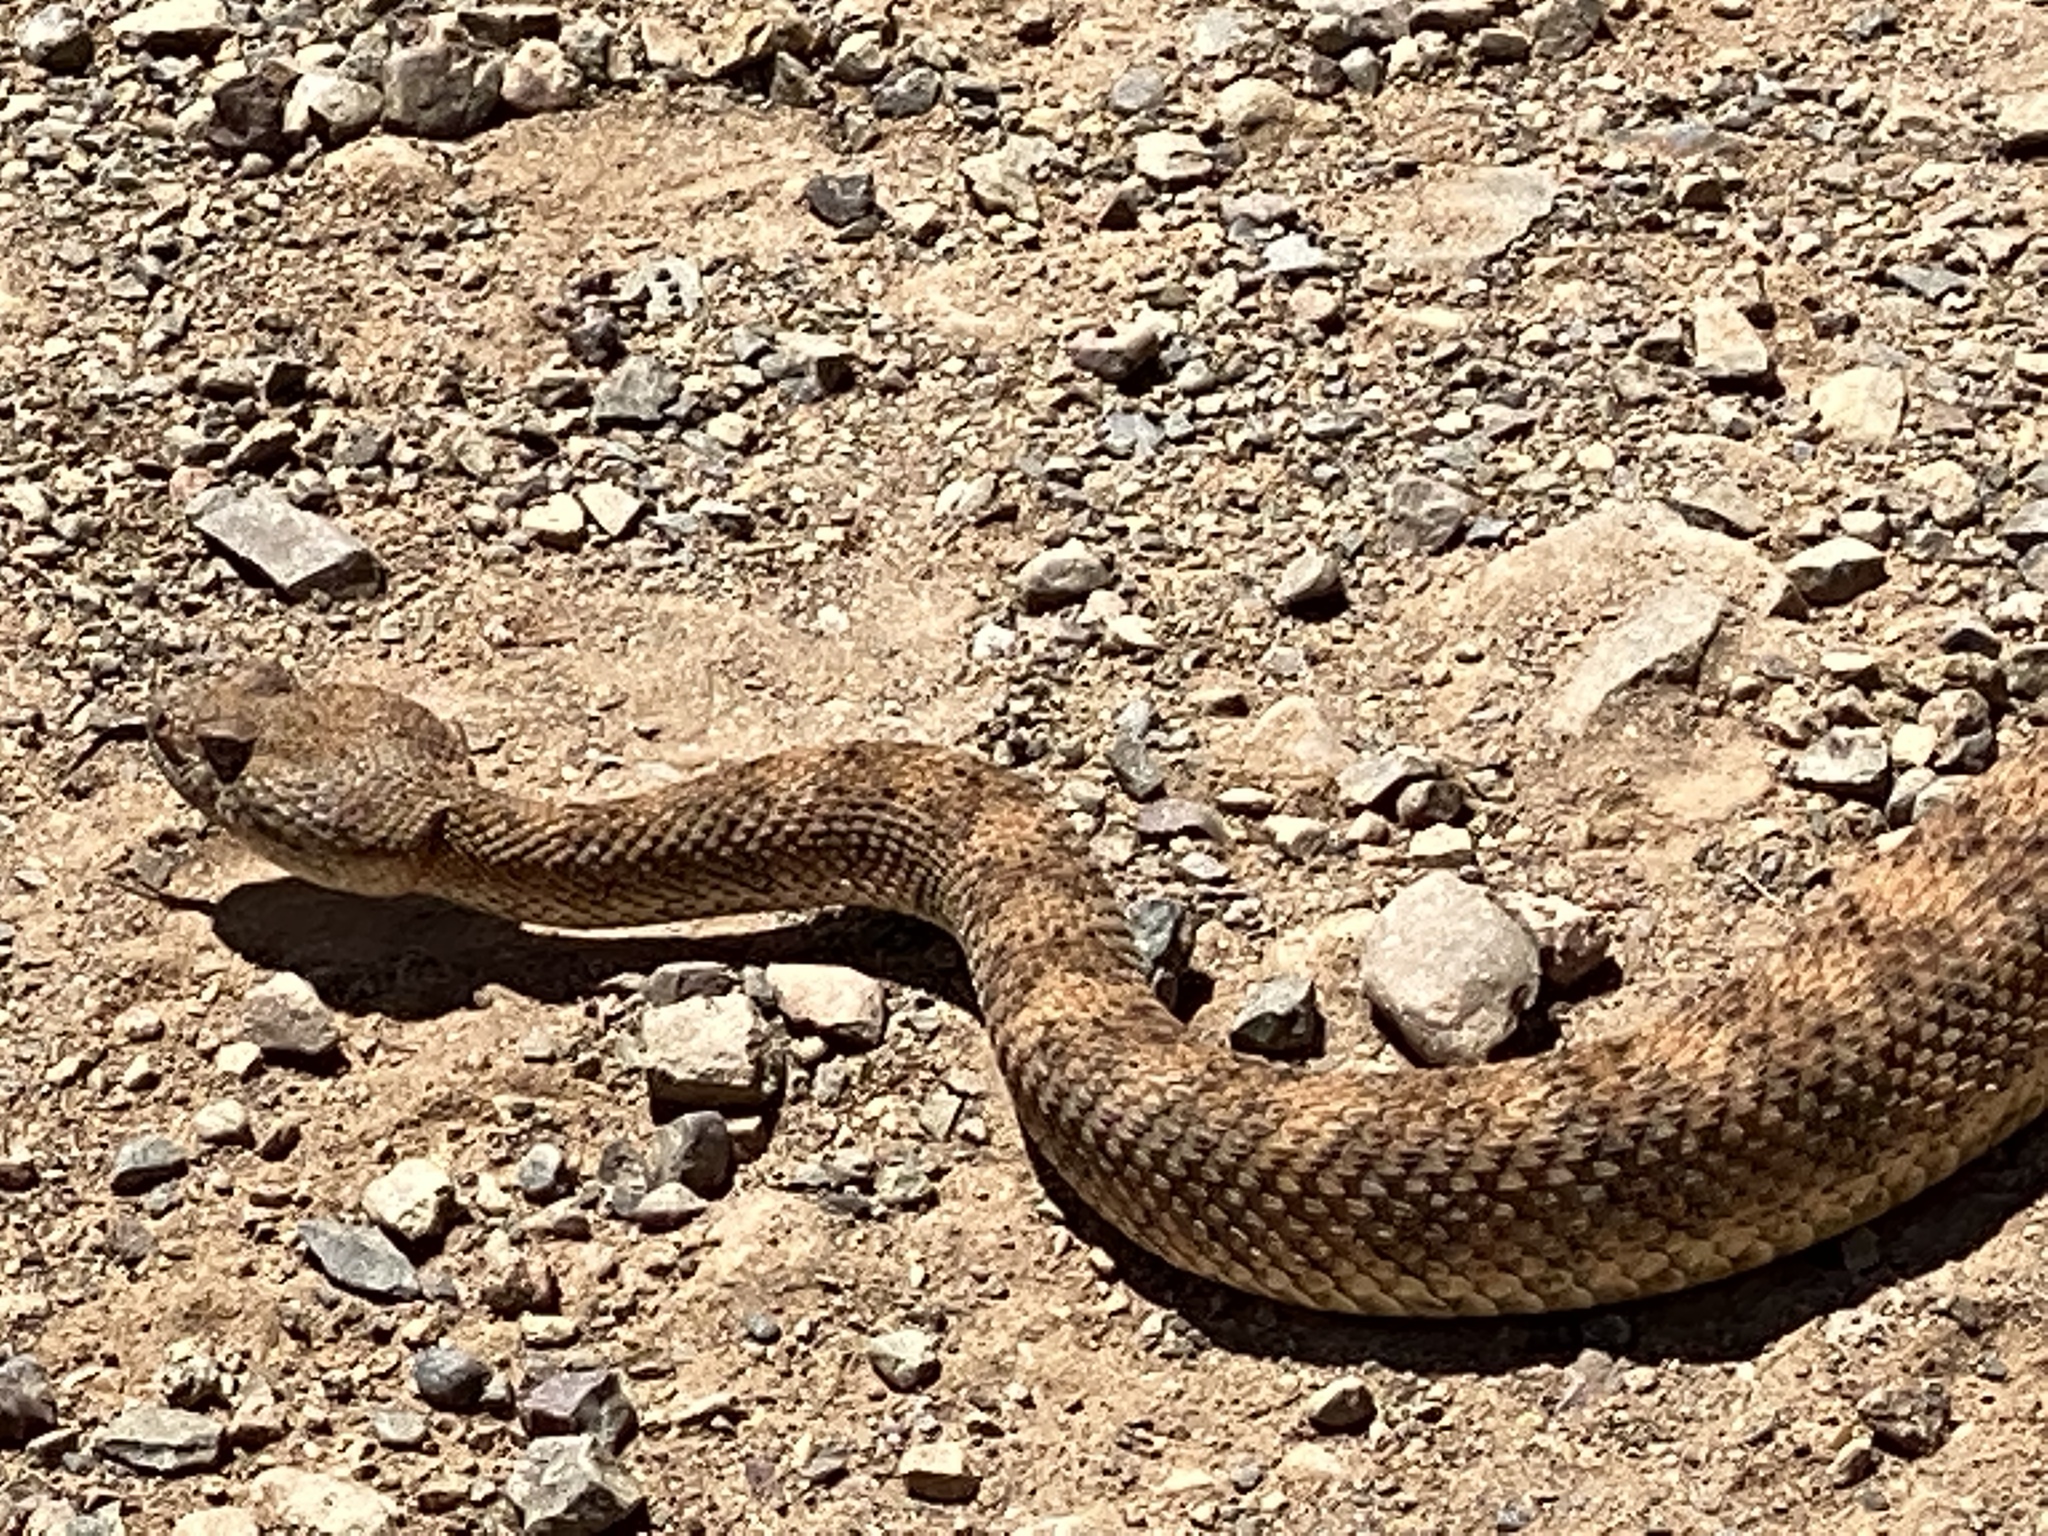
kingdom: Animalia
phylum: Chordata
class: Squamata
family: Viperidae
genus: Crotalus
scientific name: Crotalus pyrrhus
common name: Southwestern speckled rattlesnake
